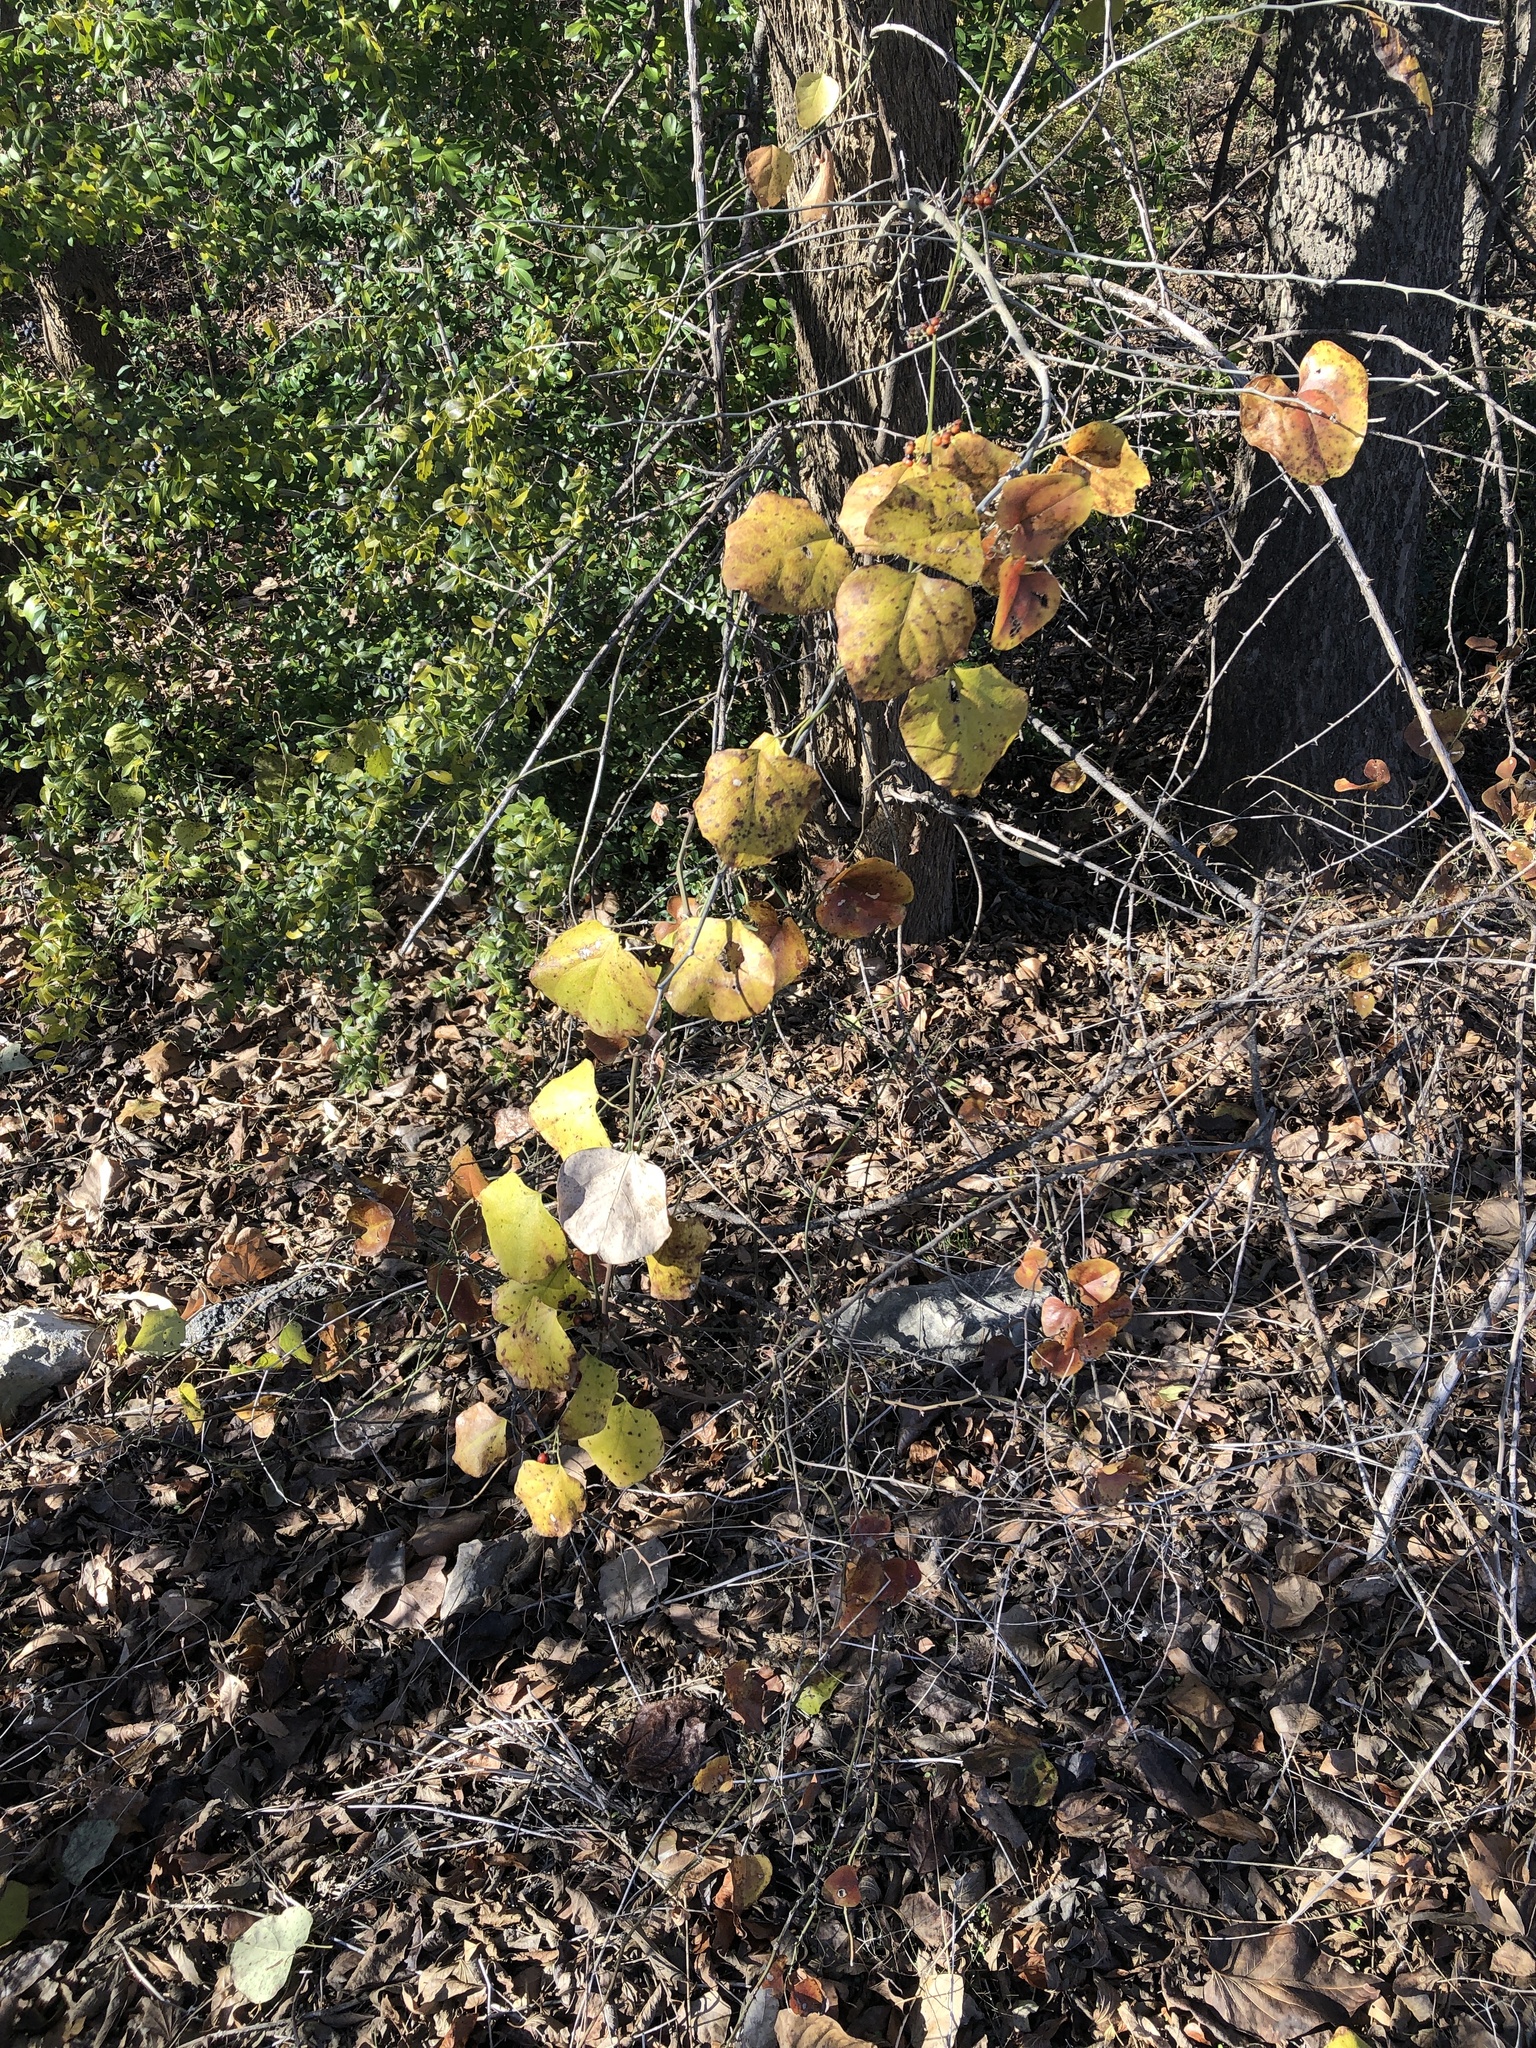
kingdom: Plantae
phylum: Tracheophyta
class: Magnoliopsida
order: Ranunculales
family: Menispermaceae
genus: Cocculus
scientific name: Cocculus carolinus
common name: Carolina moonseed
